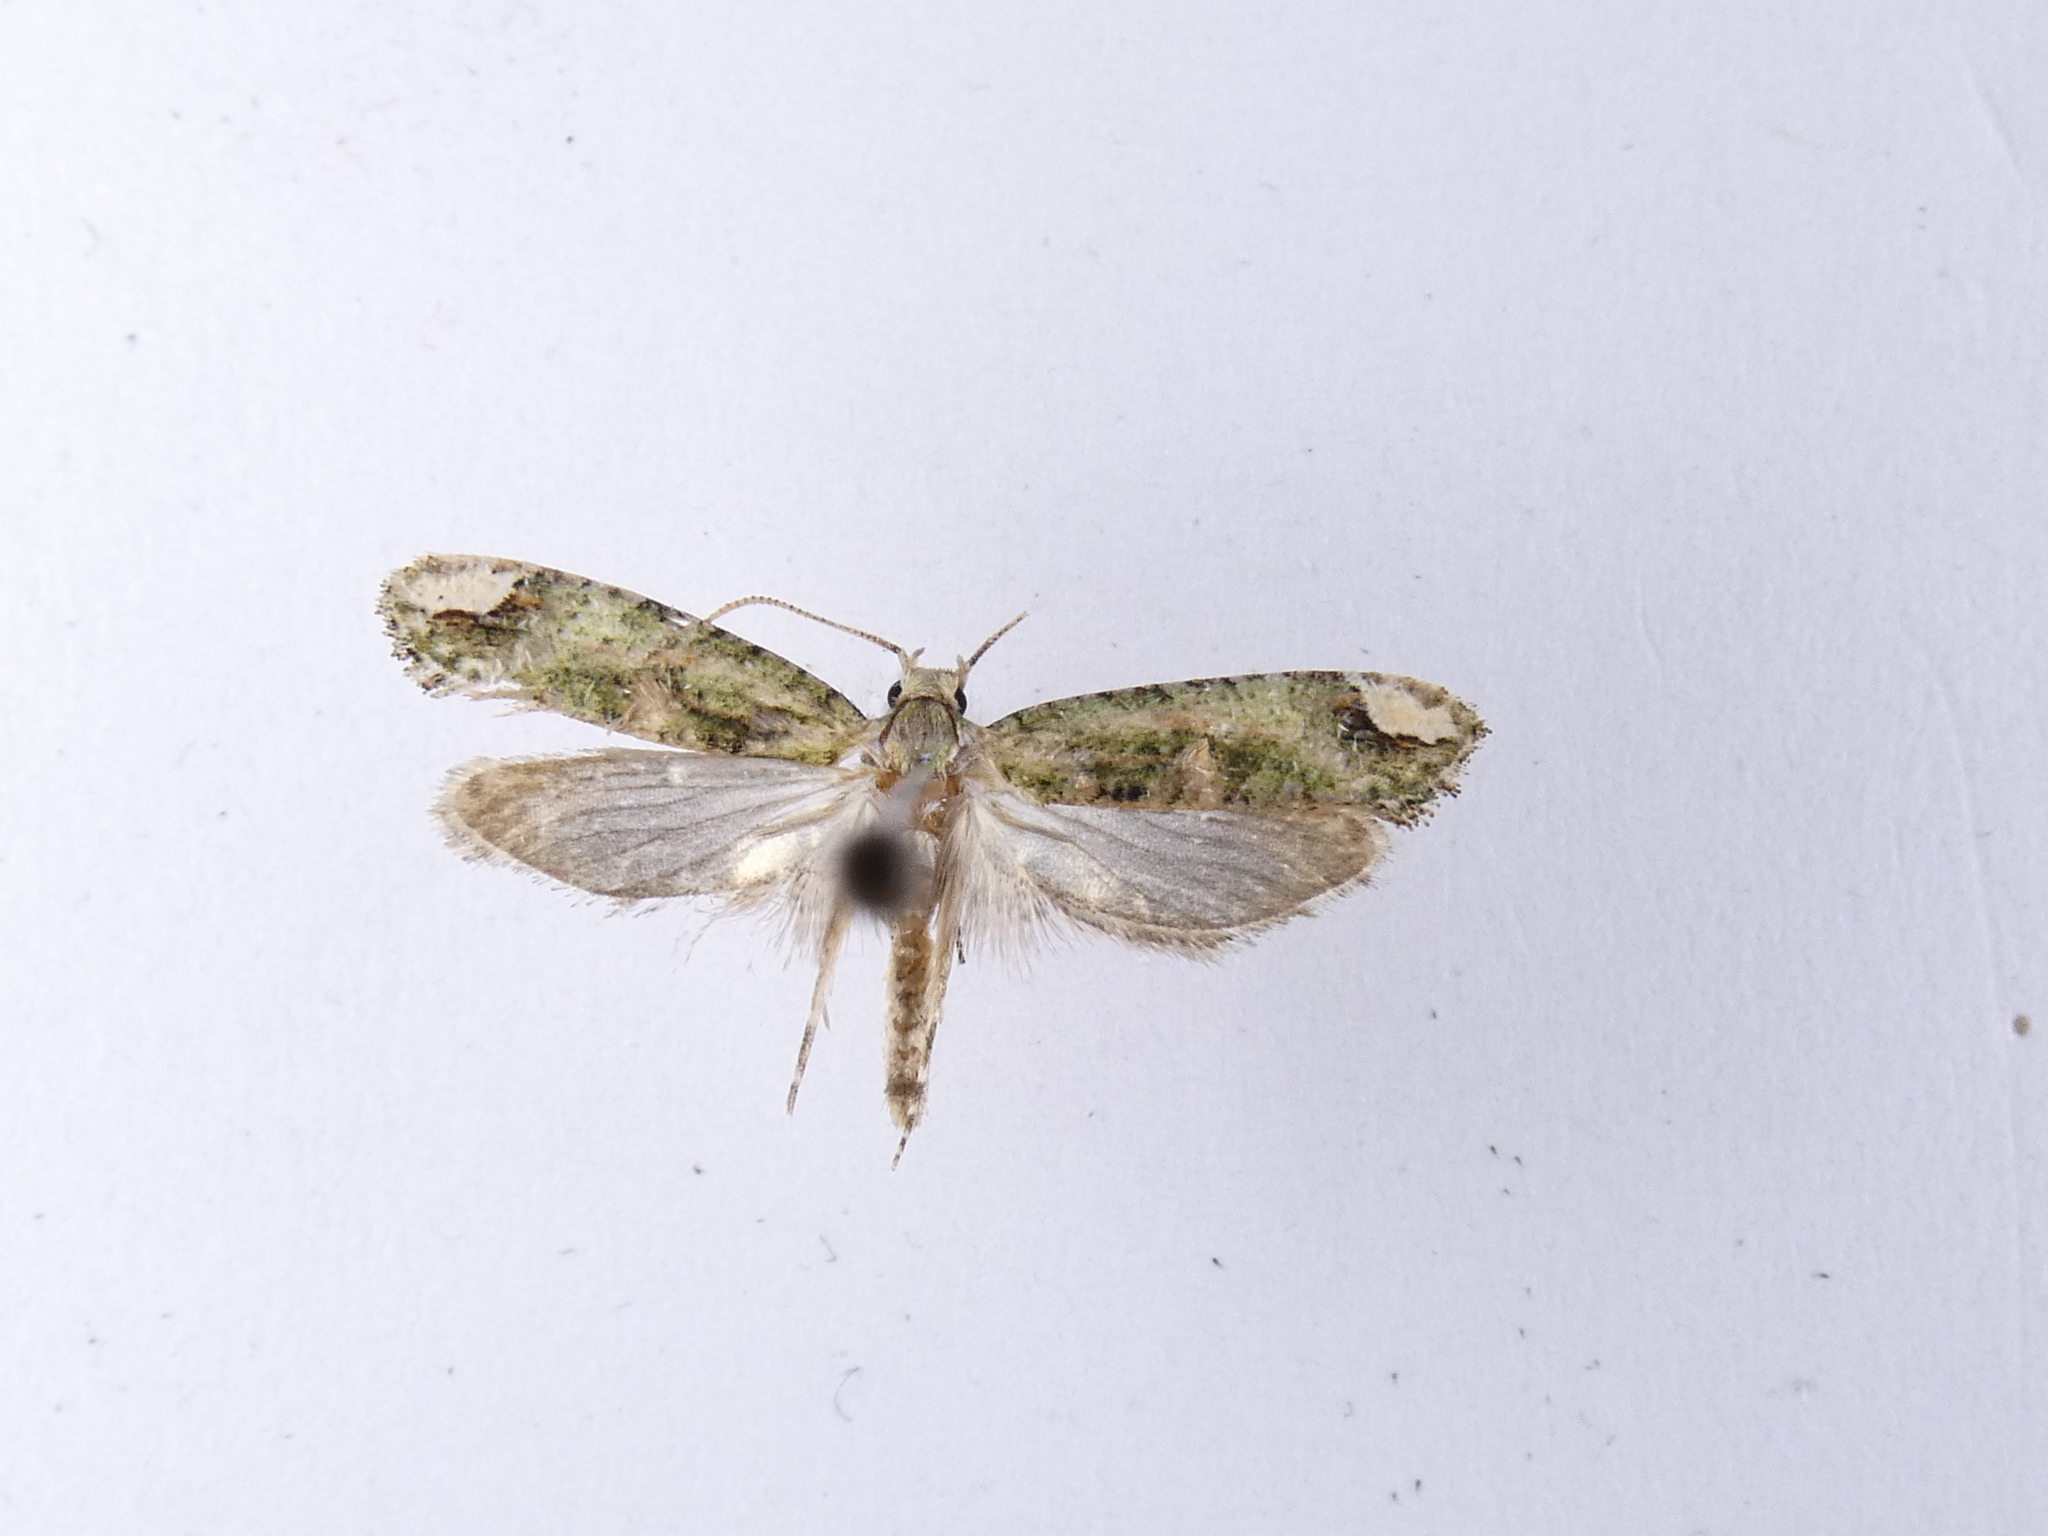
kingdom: Animalia
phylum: Arthropoda
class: Insecta
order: Lepidoptera
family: Tineidae
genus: Lysiphragma
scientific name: Lysiphragma mixochlora
